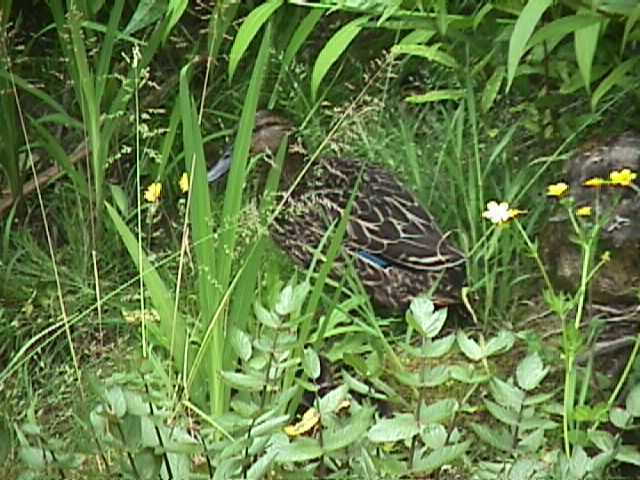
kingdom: Animalia
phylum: Chordata
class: Aves
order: Anseriformes
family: Anatidae
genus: Anas
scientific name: Anas
